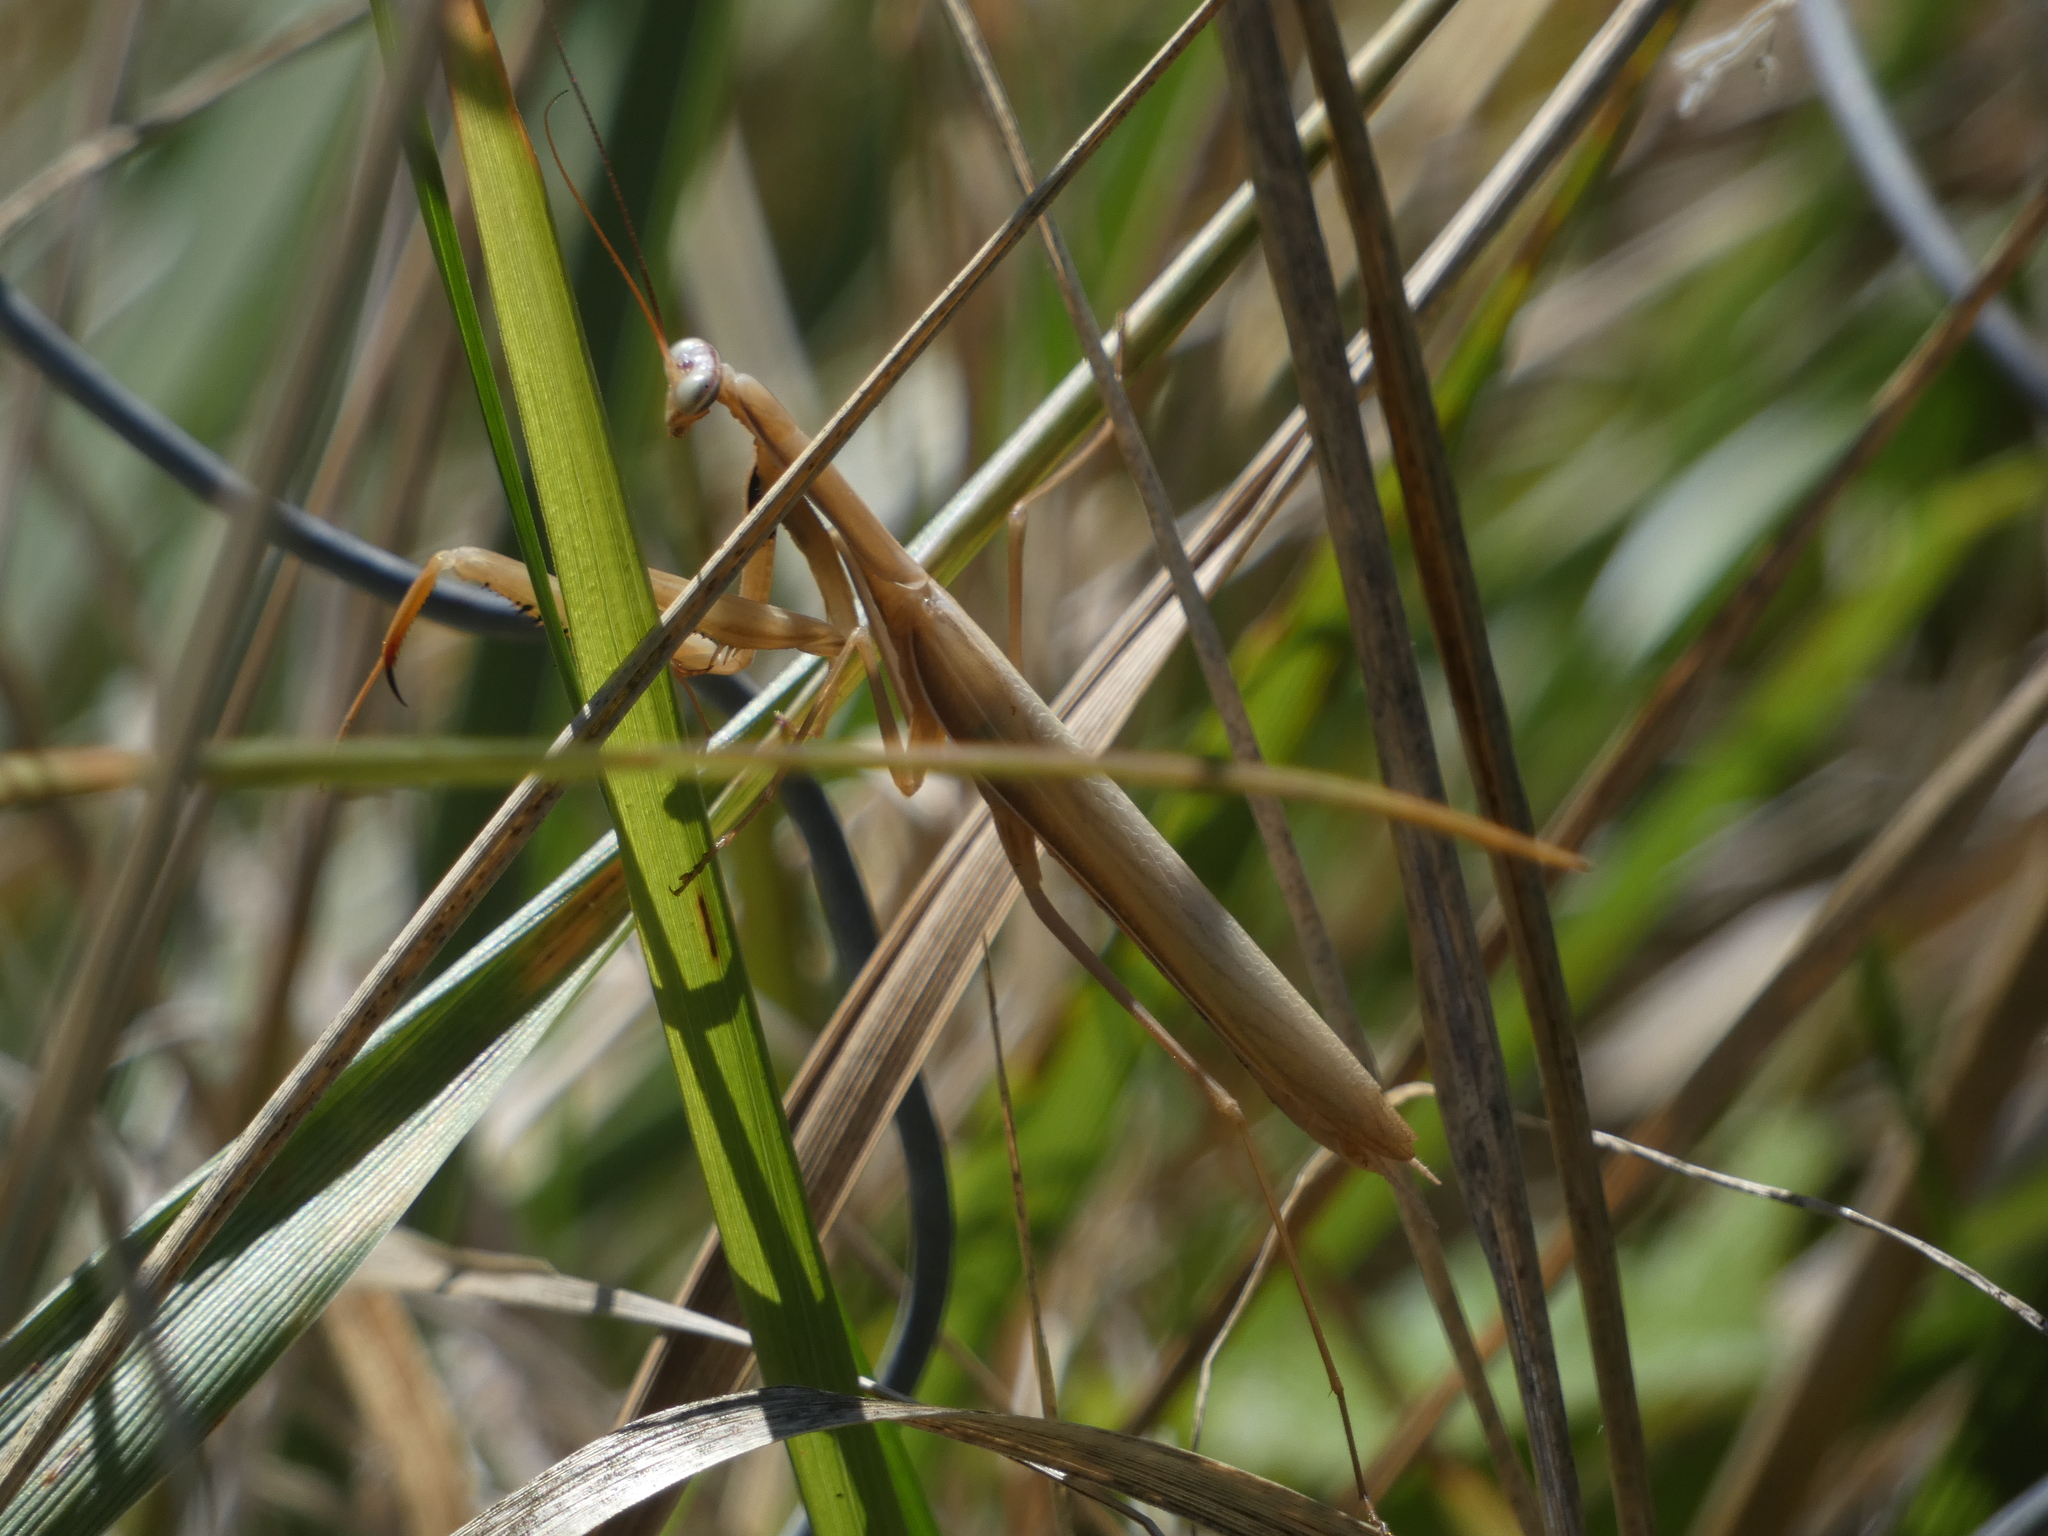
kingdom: Animalia
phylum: Arthropoda
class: Insecta
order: Mantodea
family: Mantidae
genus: Mantis
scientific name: Mantis religiosa
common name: Praying mantis
